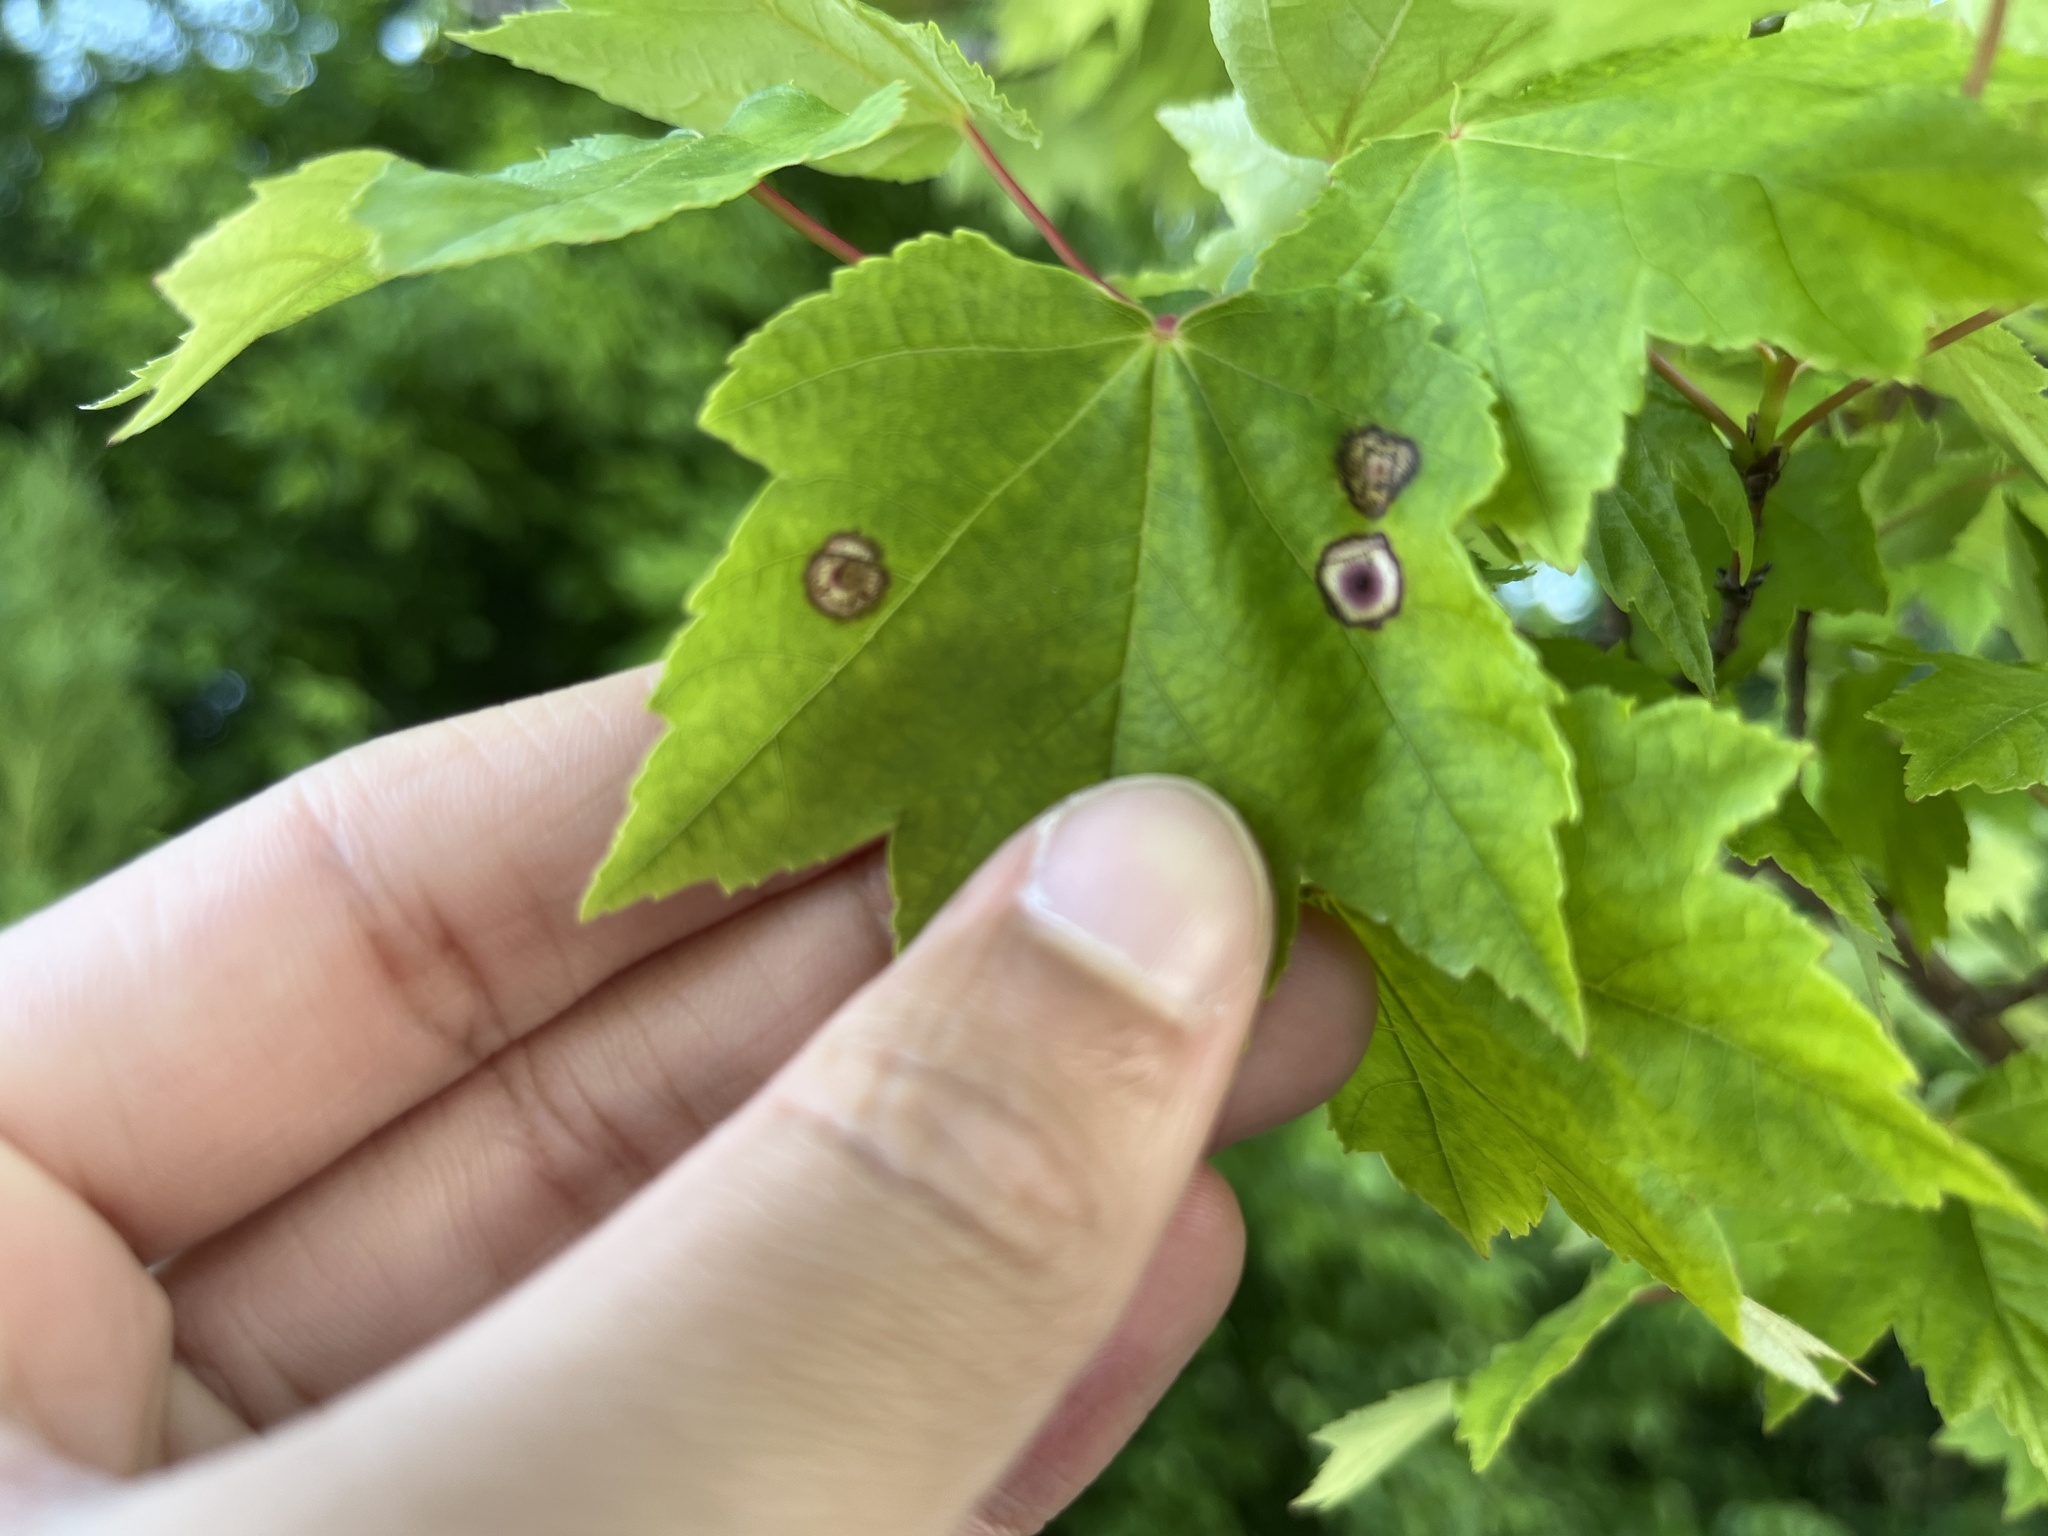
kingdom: Animalia
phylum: Arthropoda
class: Insecta
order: Diptera
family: Cecidomyiidae
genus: Acericecis
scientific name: Acericecis ocellaris
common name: Ocellate gall midge
